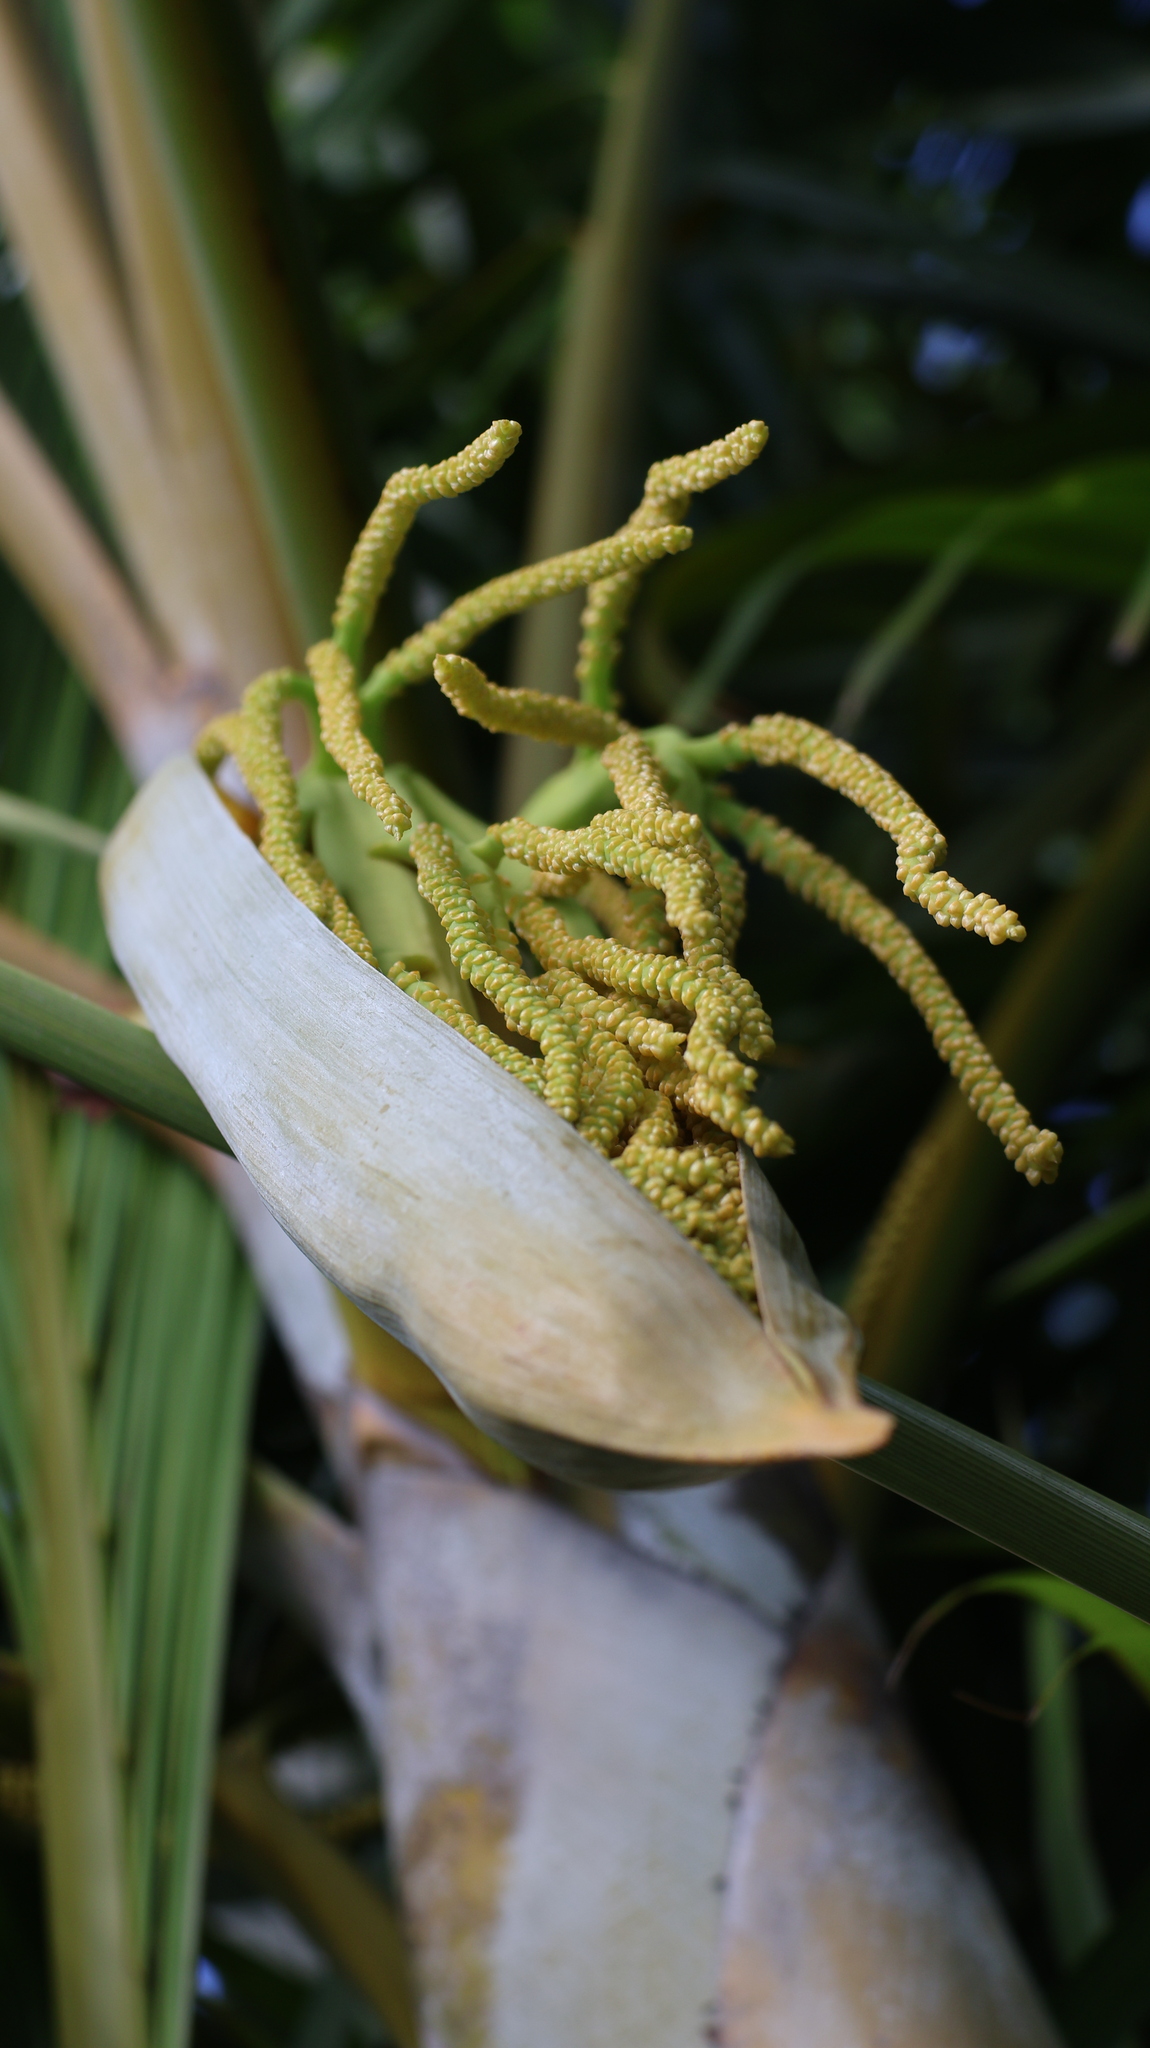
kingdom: Plantae
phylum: Tracheophyta
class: Liliopsida
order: Arecales
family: Arecaceae
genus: Roystonea
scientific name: Roystonea regia
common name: Florida royal palm
